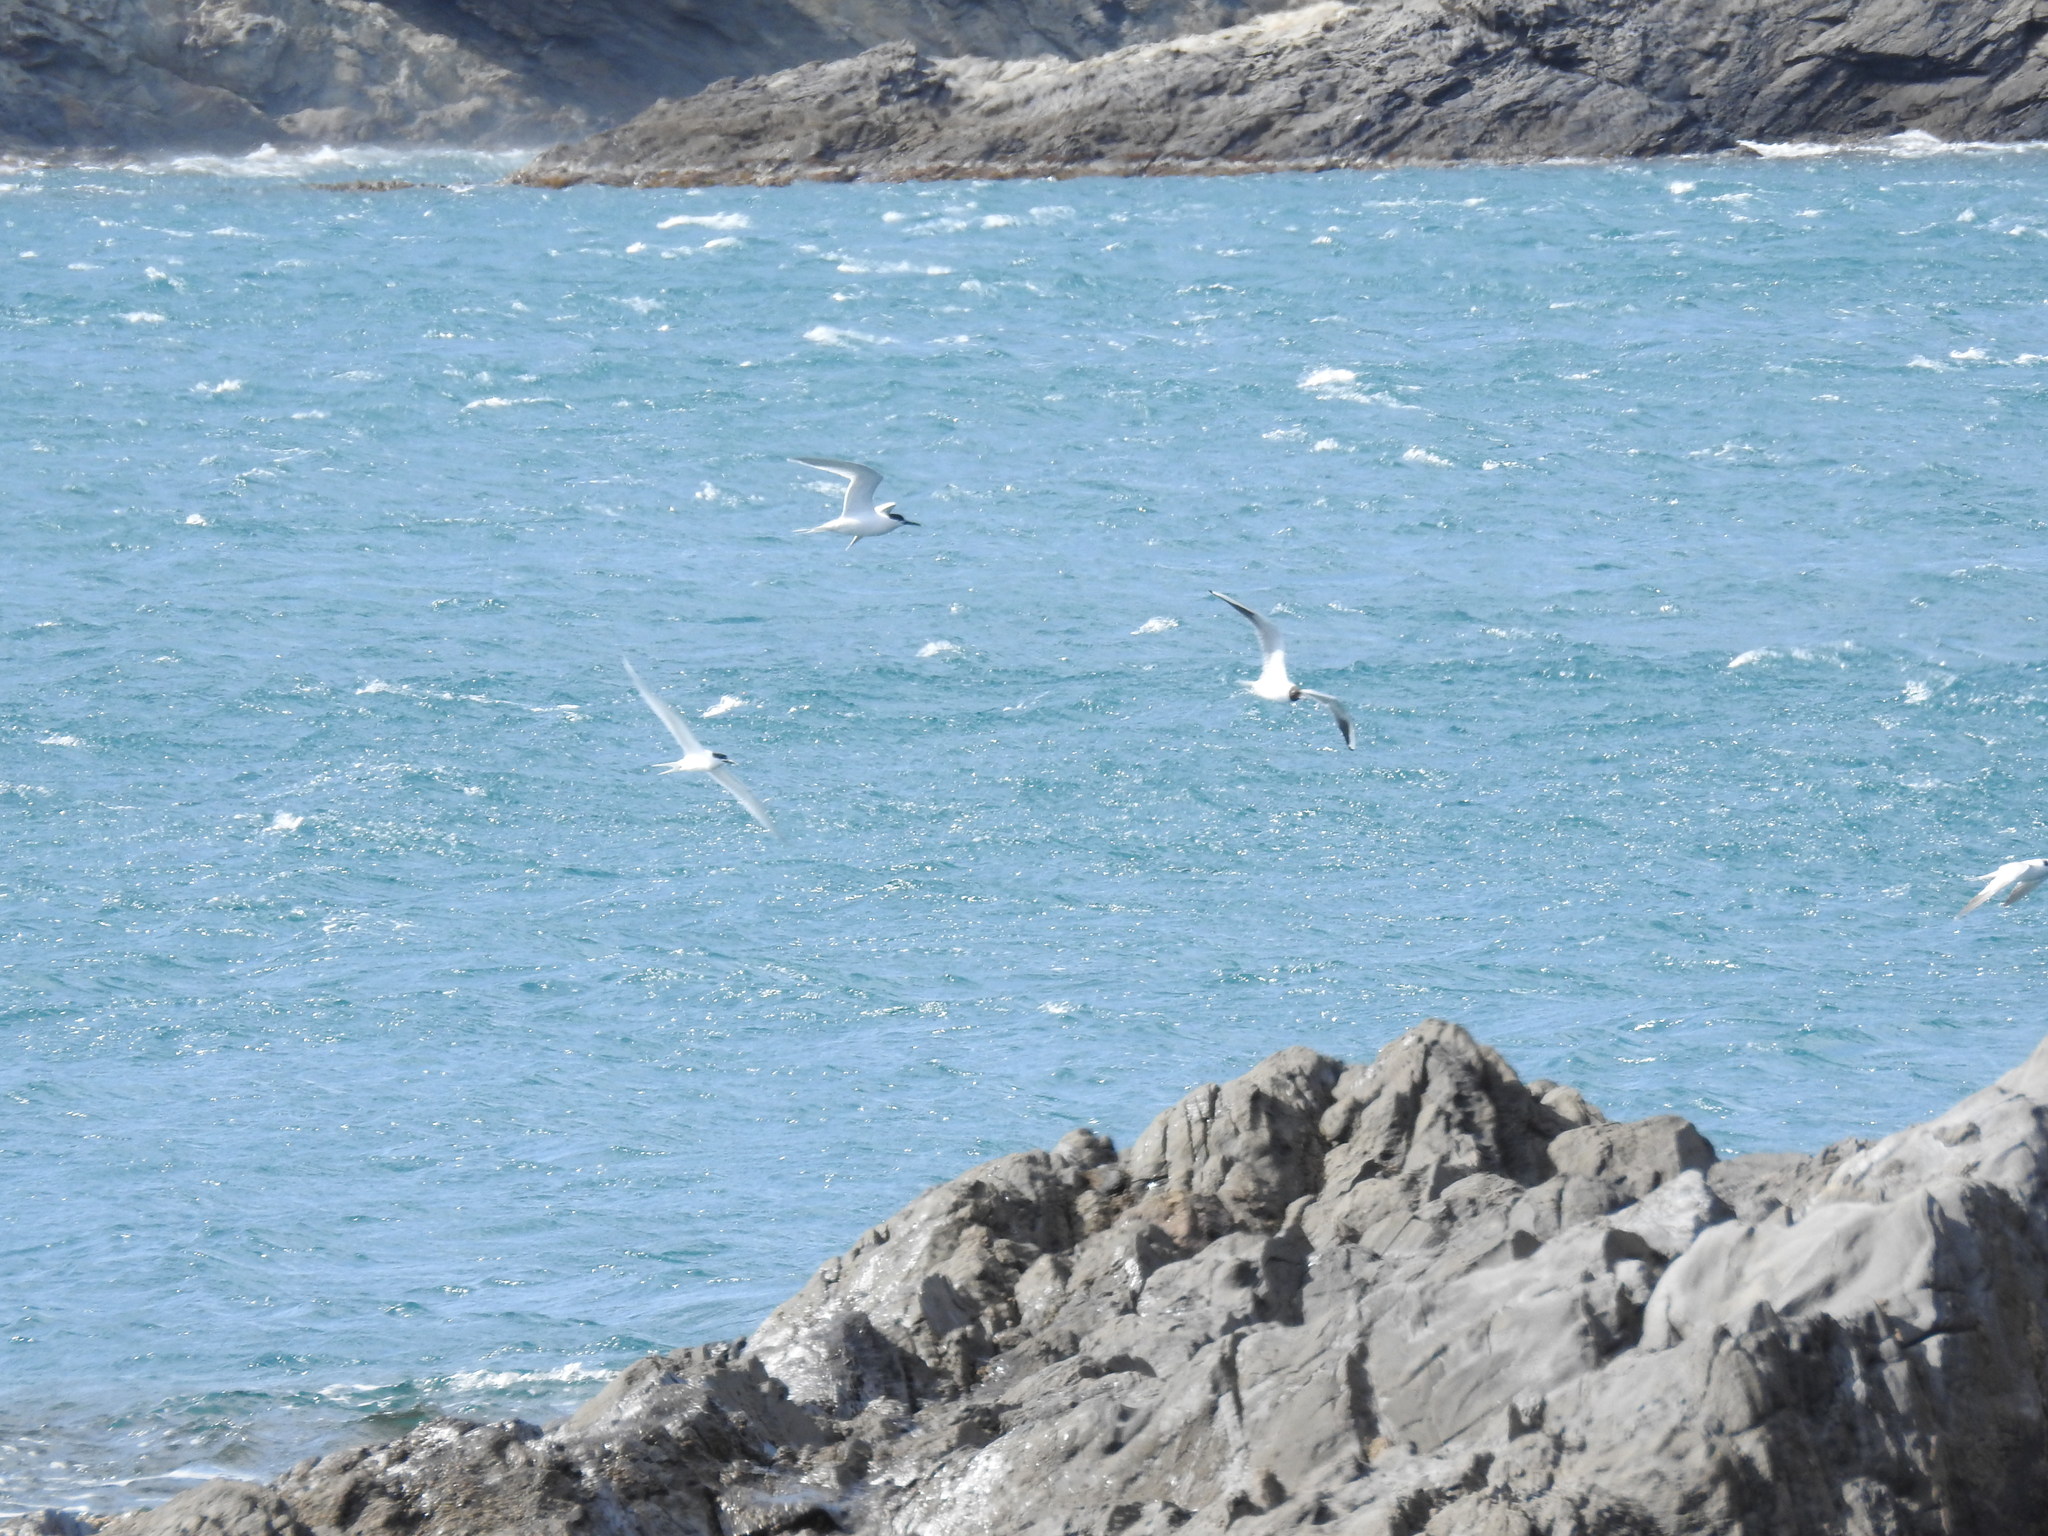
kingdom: Animalia
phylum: Chordata
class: Aves
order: Charadriiformes
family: Laridae
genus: Thalasseus
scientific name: Thalasseus sandvicensis
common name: Sandwich tern
